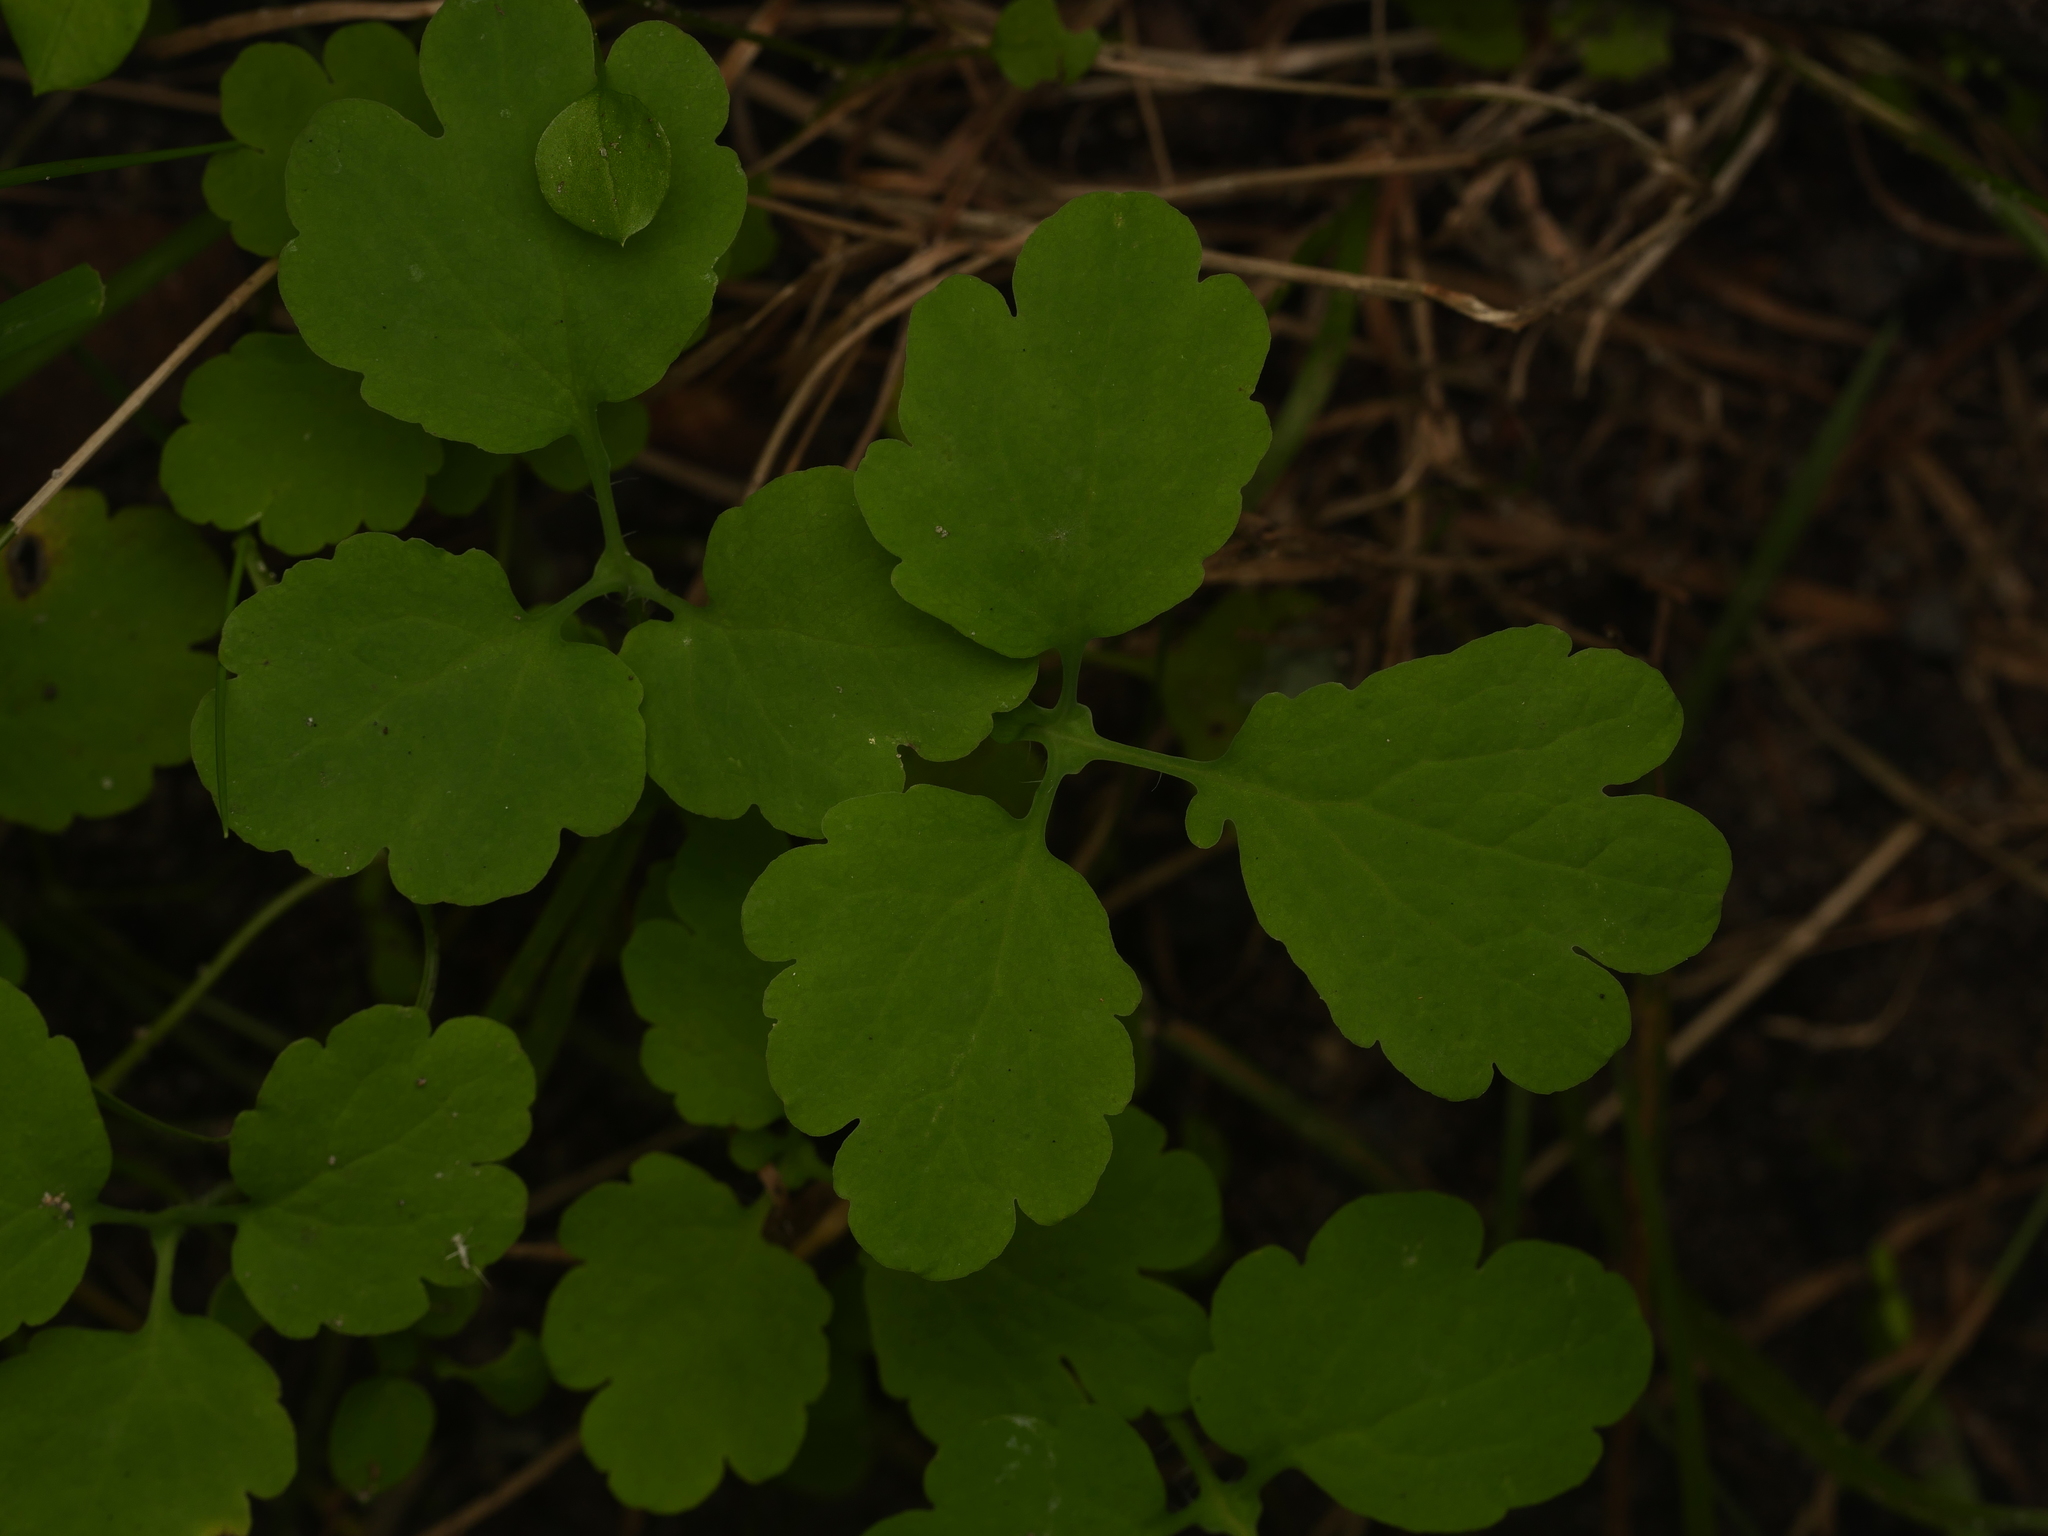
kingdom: Plantae
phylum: Tracheophyta
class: Magnoliopsida
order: Ranunculales
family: Papaveraceae
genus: Chelidonium
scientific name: Chelidonium majus
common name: Greater celandine
